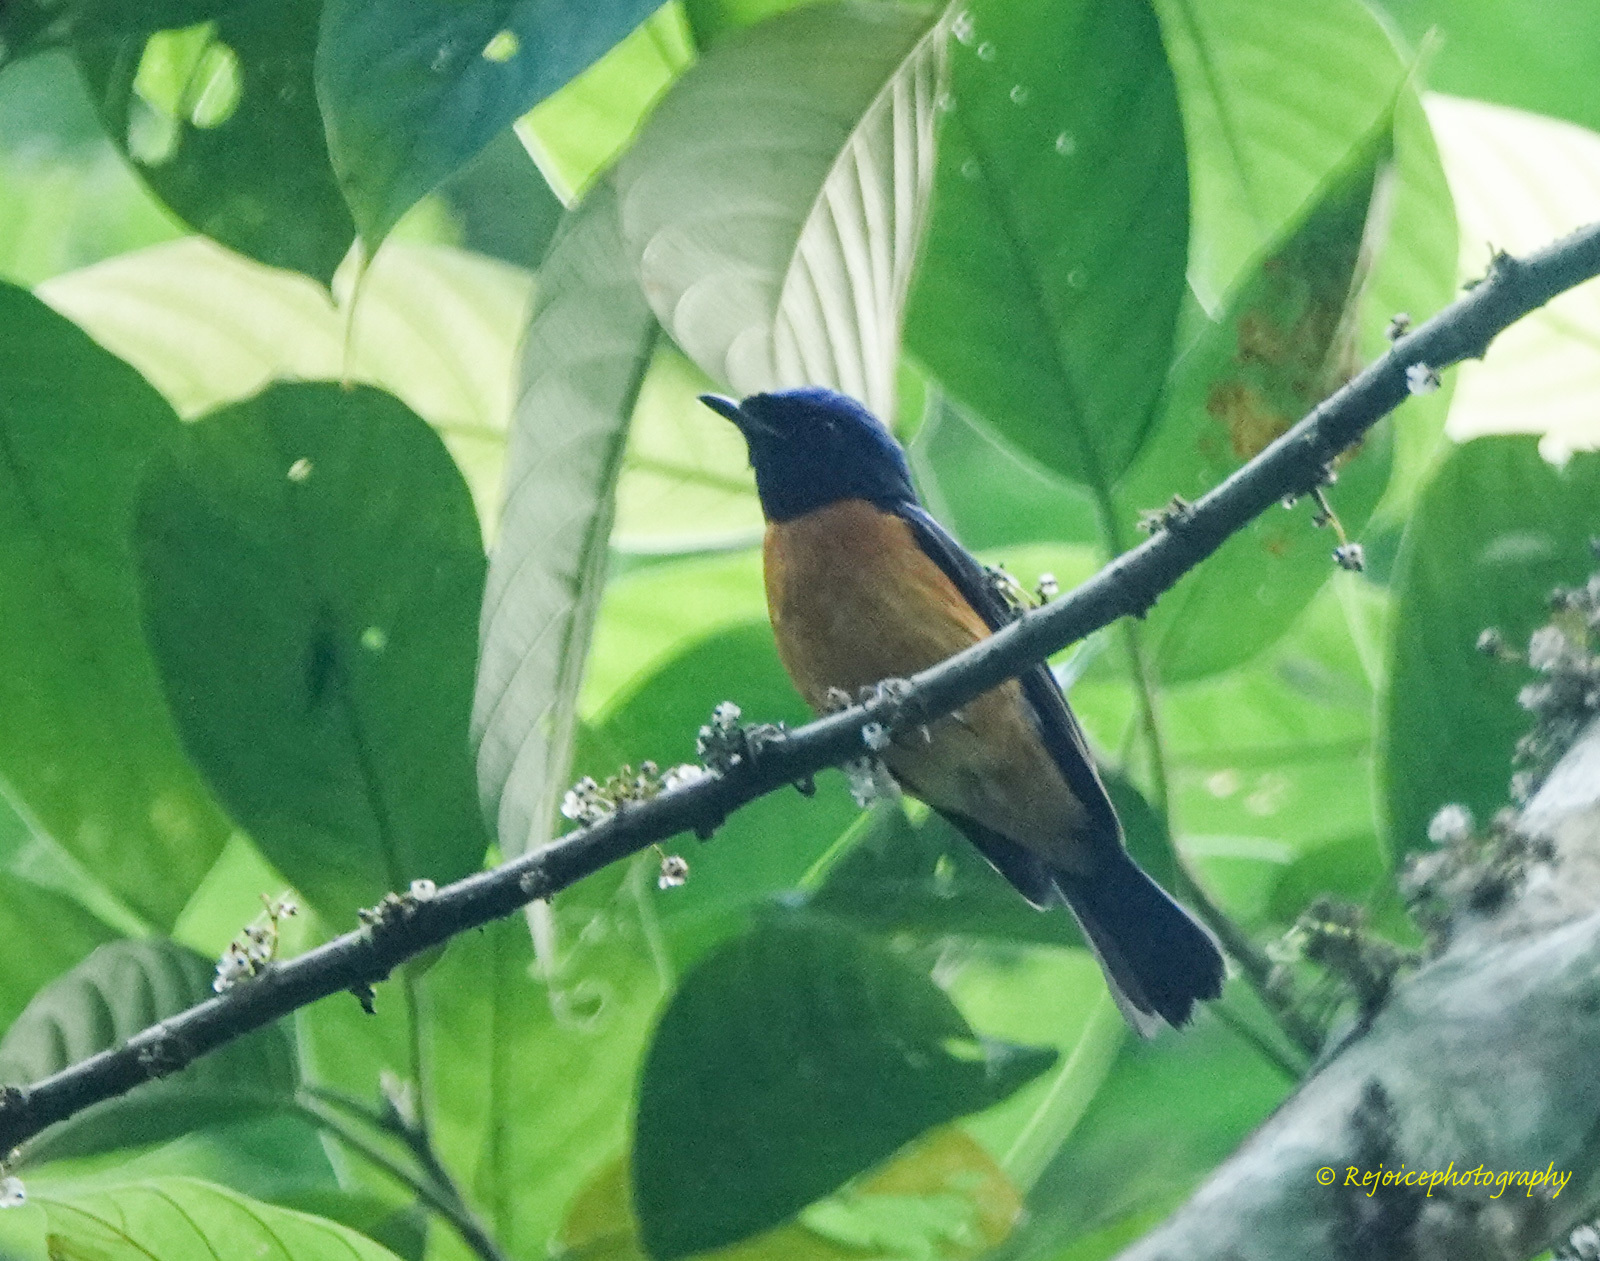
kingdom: Animalia
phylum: Chordata
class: Aves
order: Passeriformes
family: Muscicapidae
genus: Niltava
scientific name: Niltava sundara
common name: Rufous-bellied niltava
